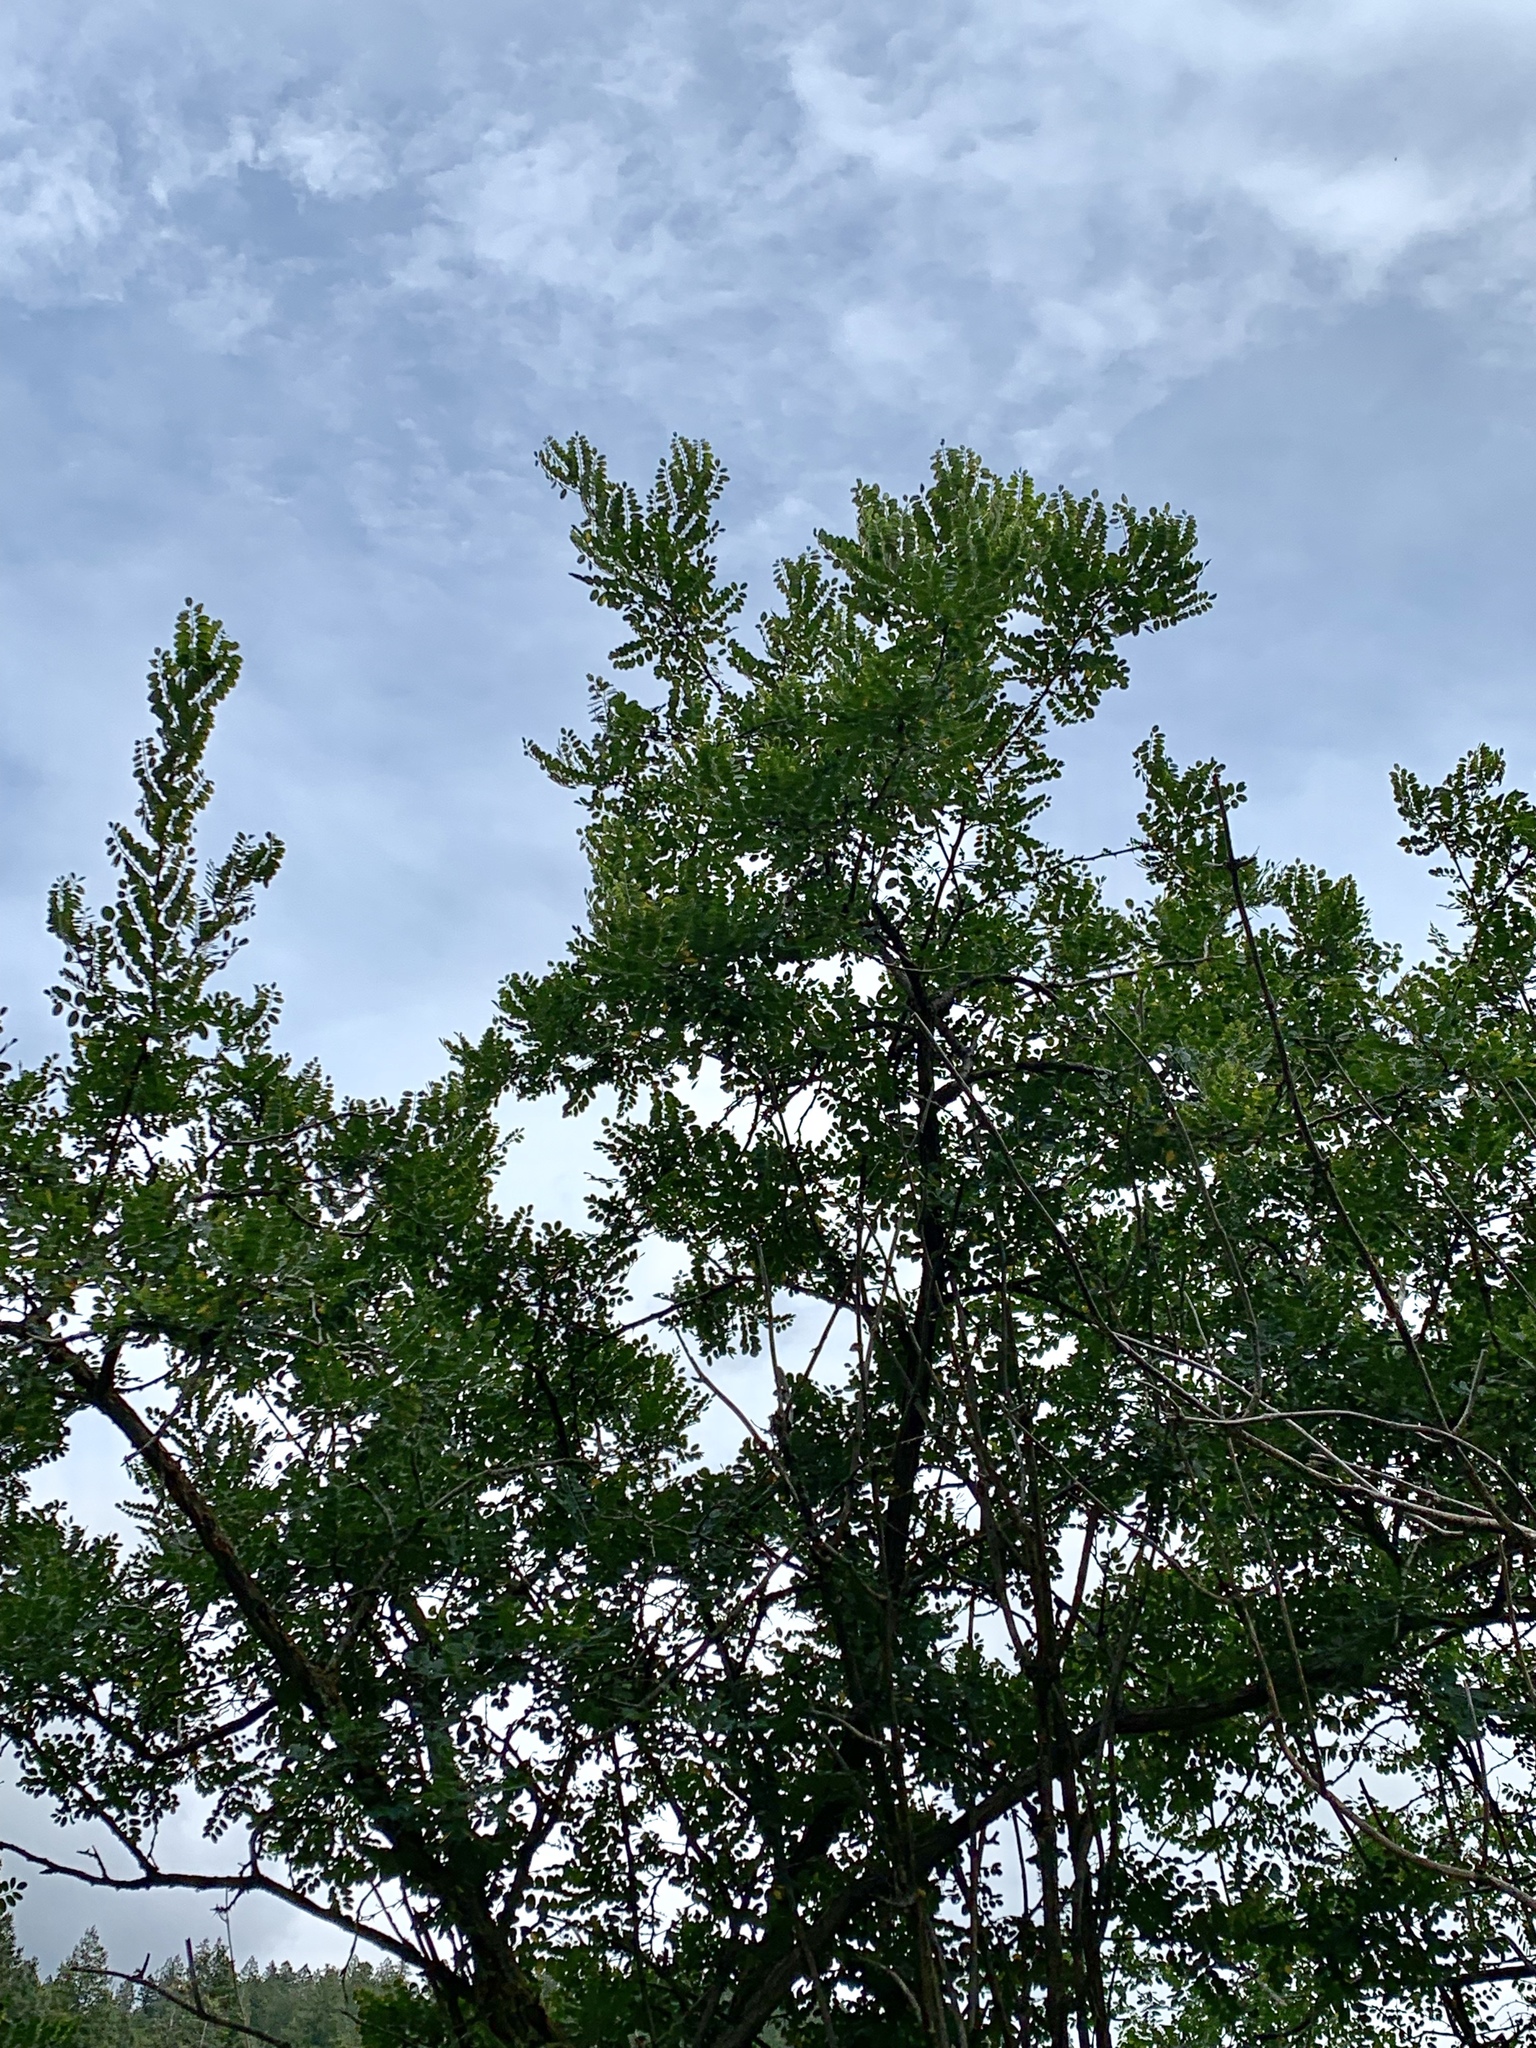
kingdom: Plantae
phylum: Tracheophyta
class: Magnoliopsida
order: Fabales
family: Fabaceae
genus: Robinia
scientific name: Robinia neomexicana
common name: New mexico locust
